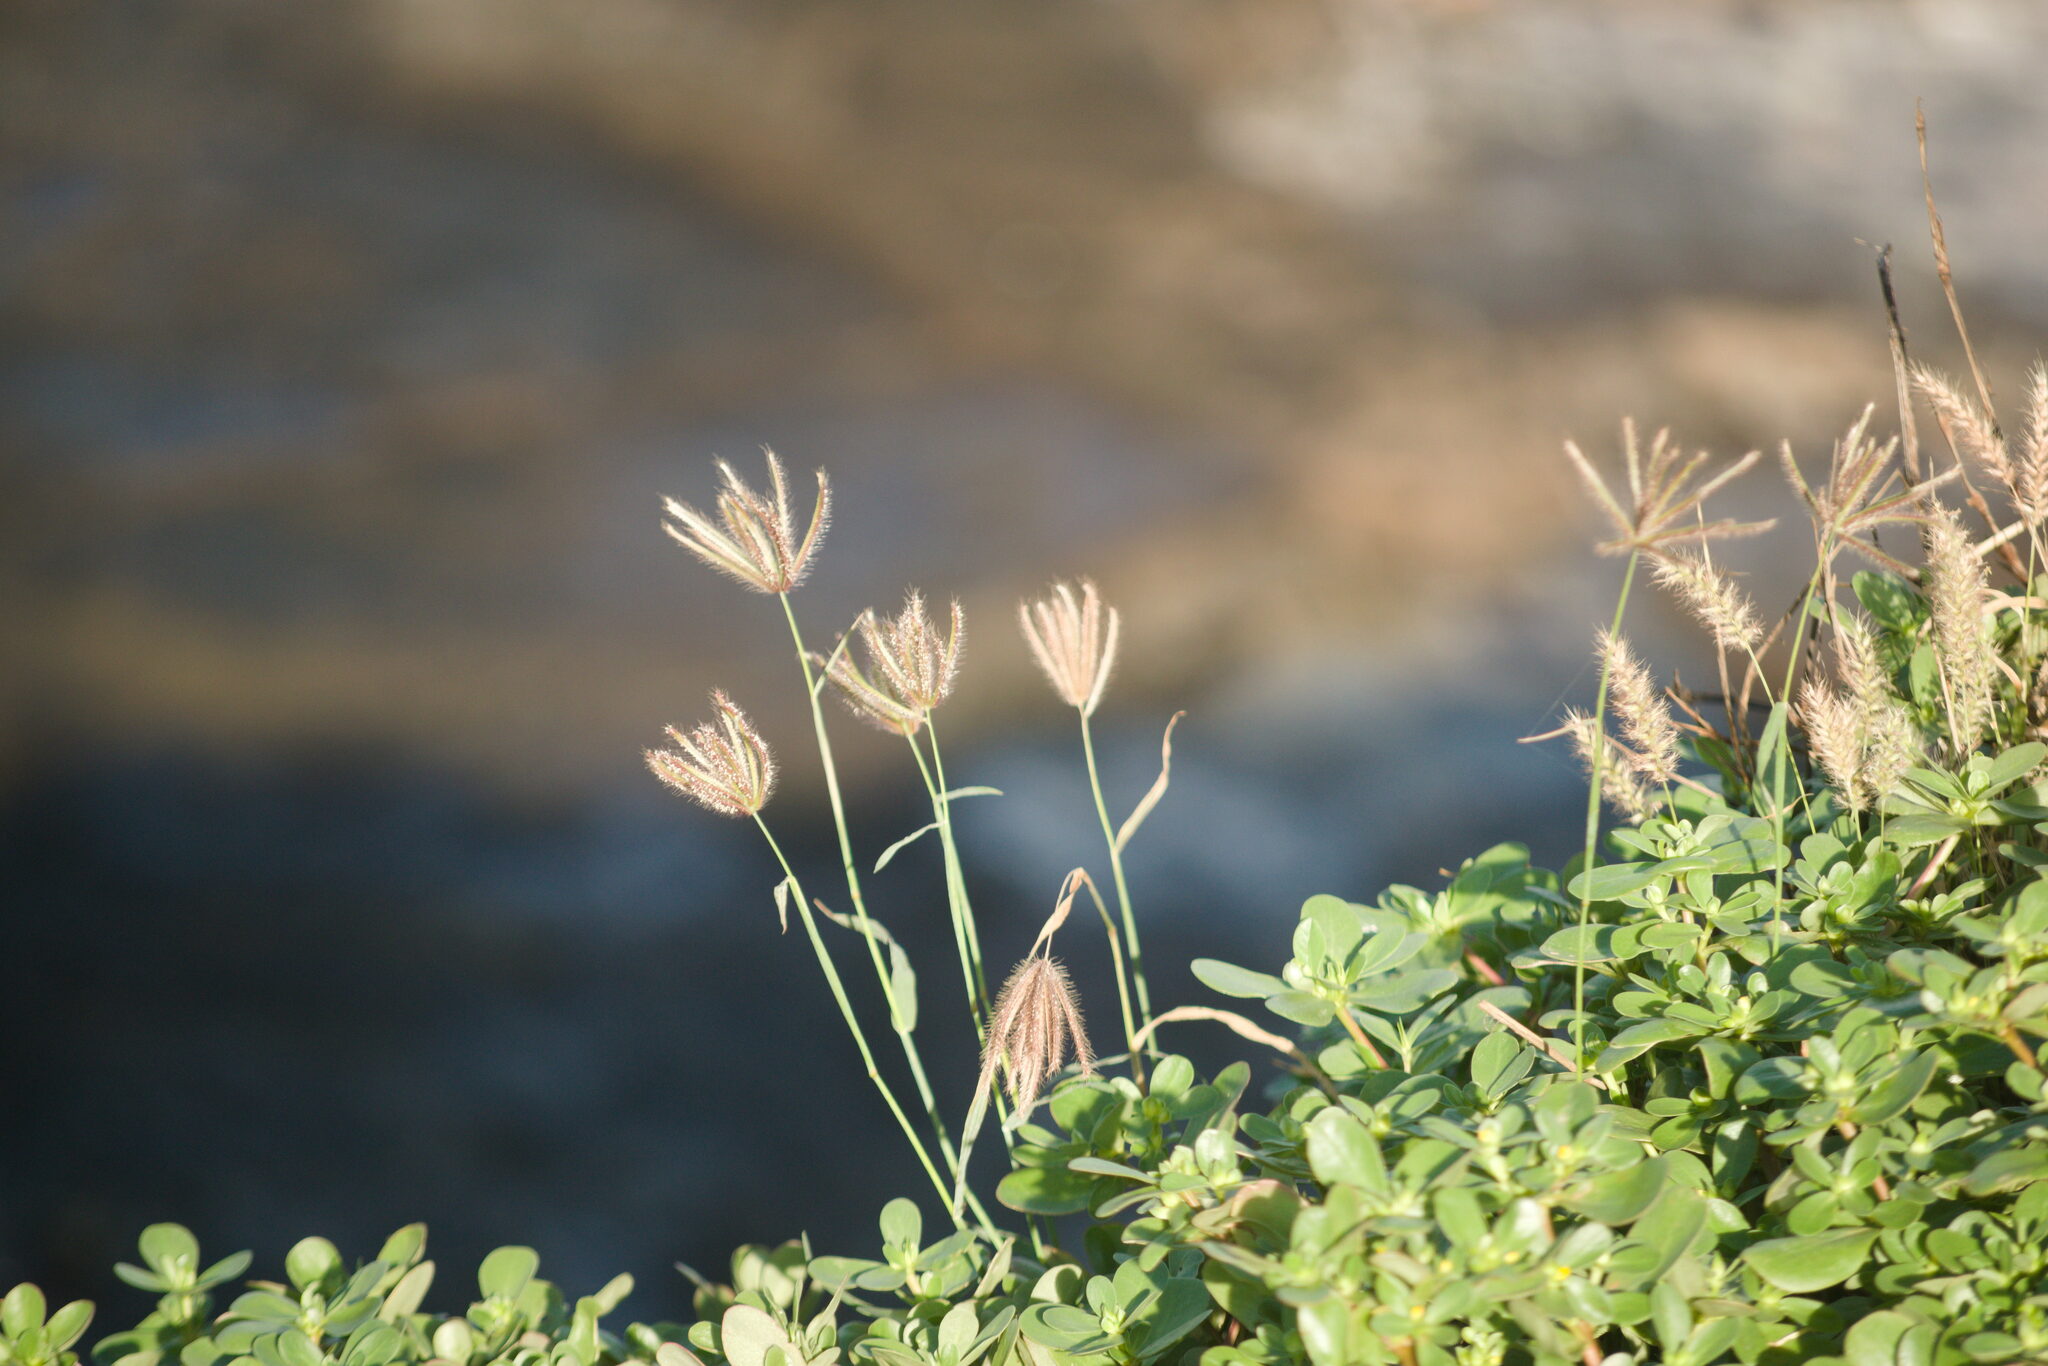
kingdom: Plantae
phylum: Tracheophyta
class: Liliopsida
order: Poales
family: Poaceae
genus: Chloris
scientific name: Chloris barbata
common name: Swollen fingergrass
